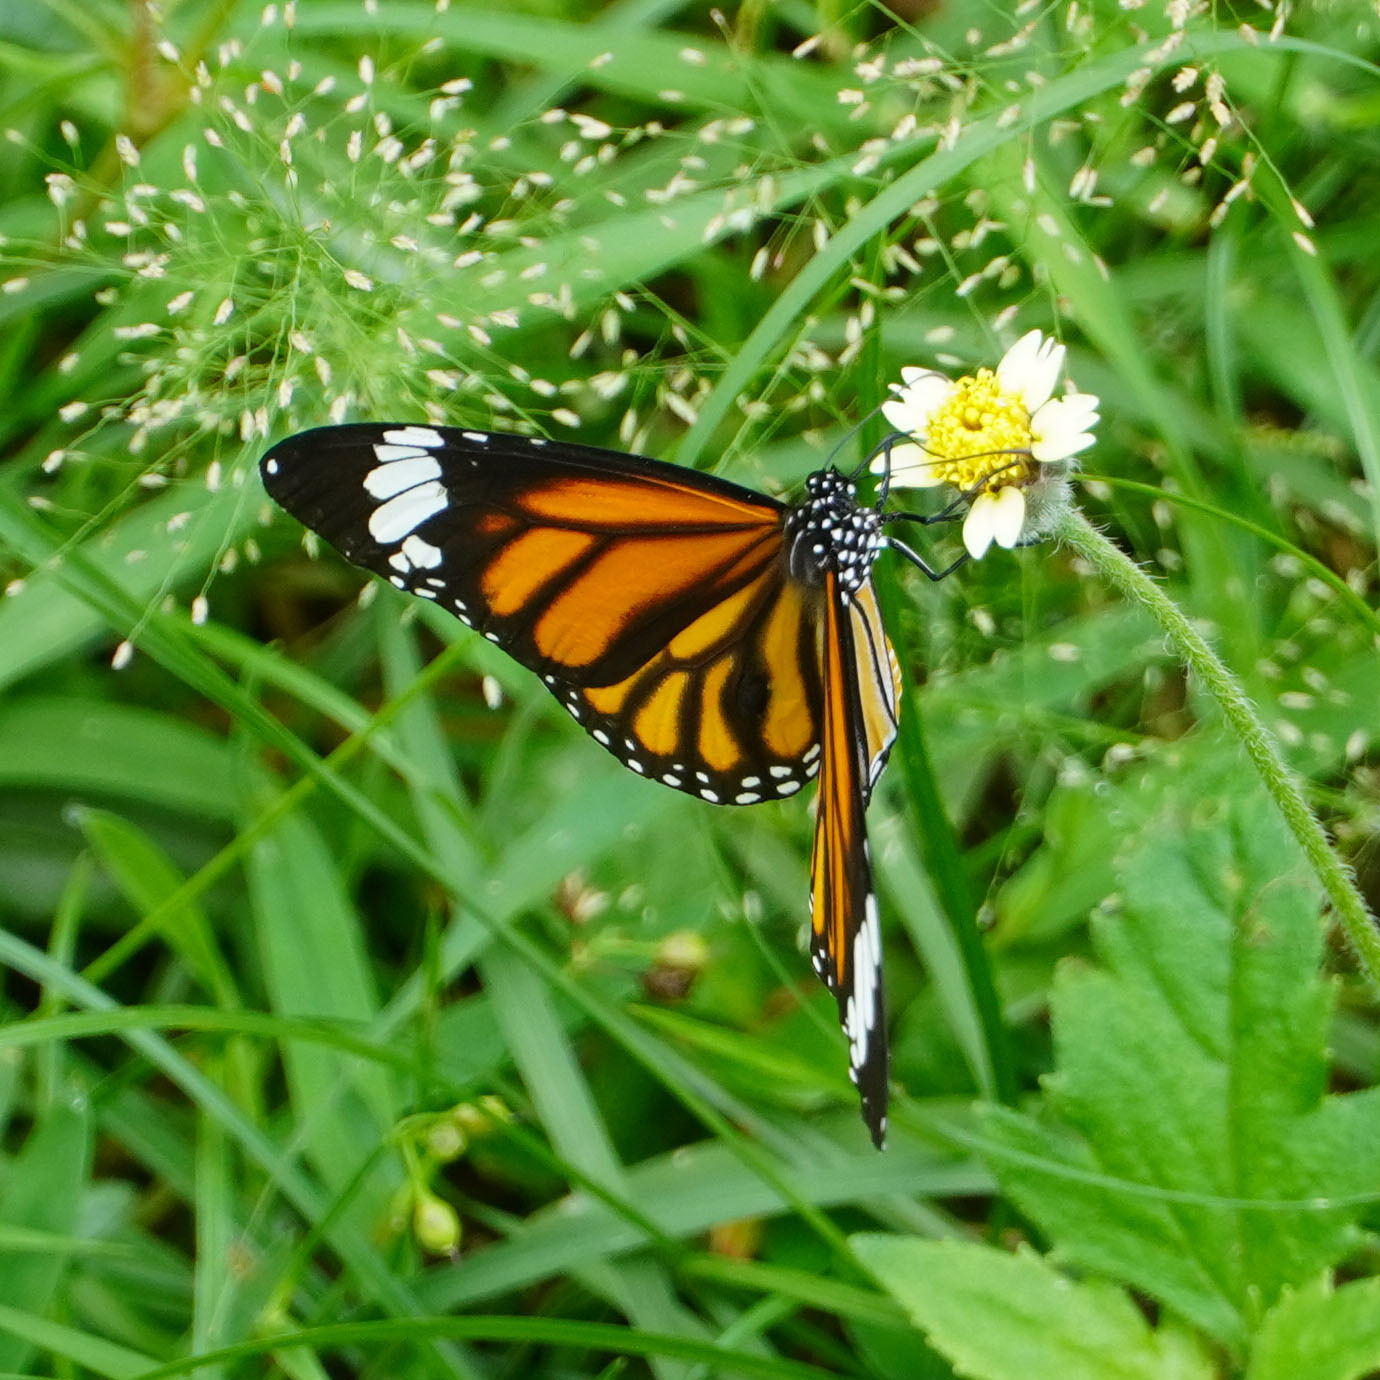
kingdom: Animalia
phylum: Arthropoda
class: Insecta
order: Lepidoptera
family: Nymphalidae
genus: Danaus
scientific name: Danaus genutia
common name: Common tiger butterfly
